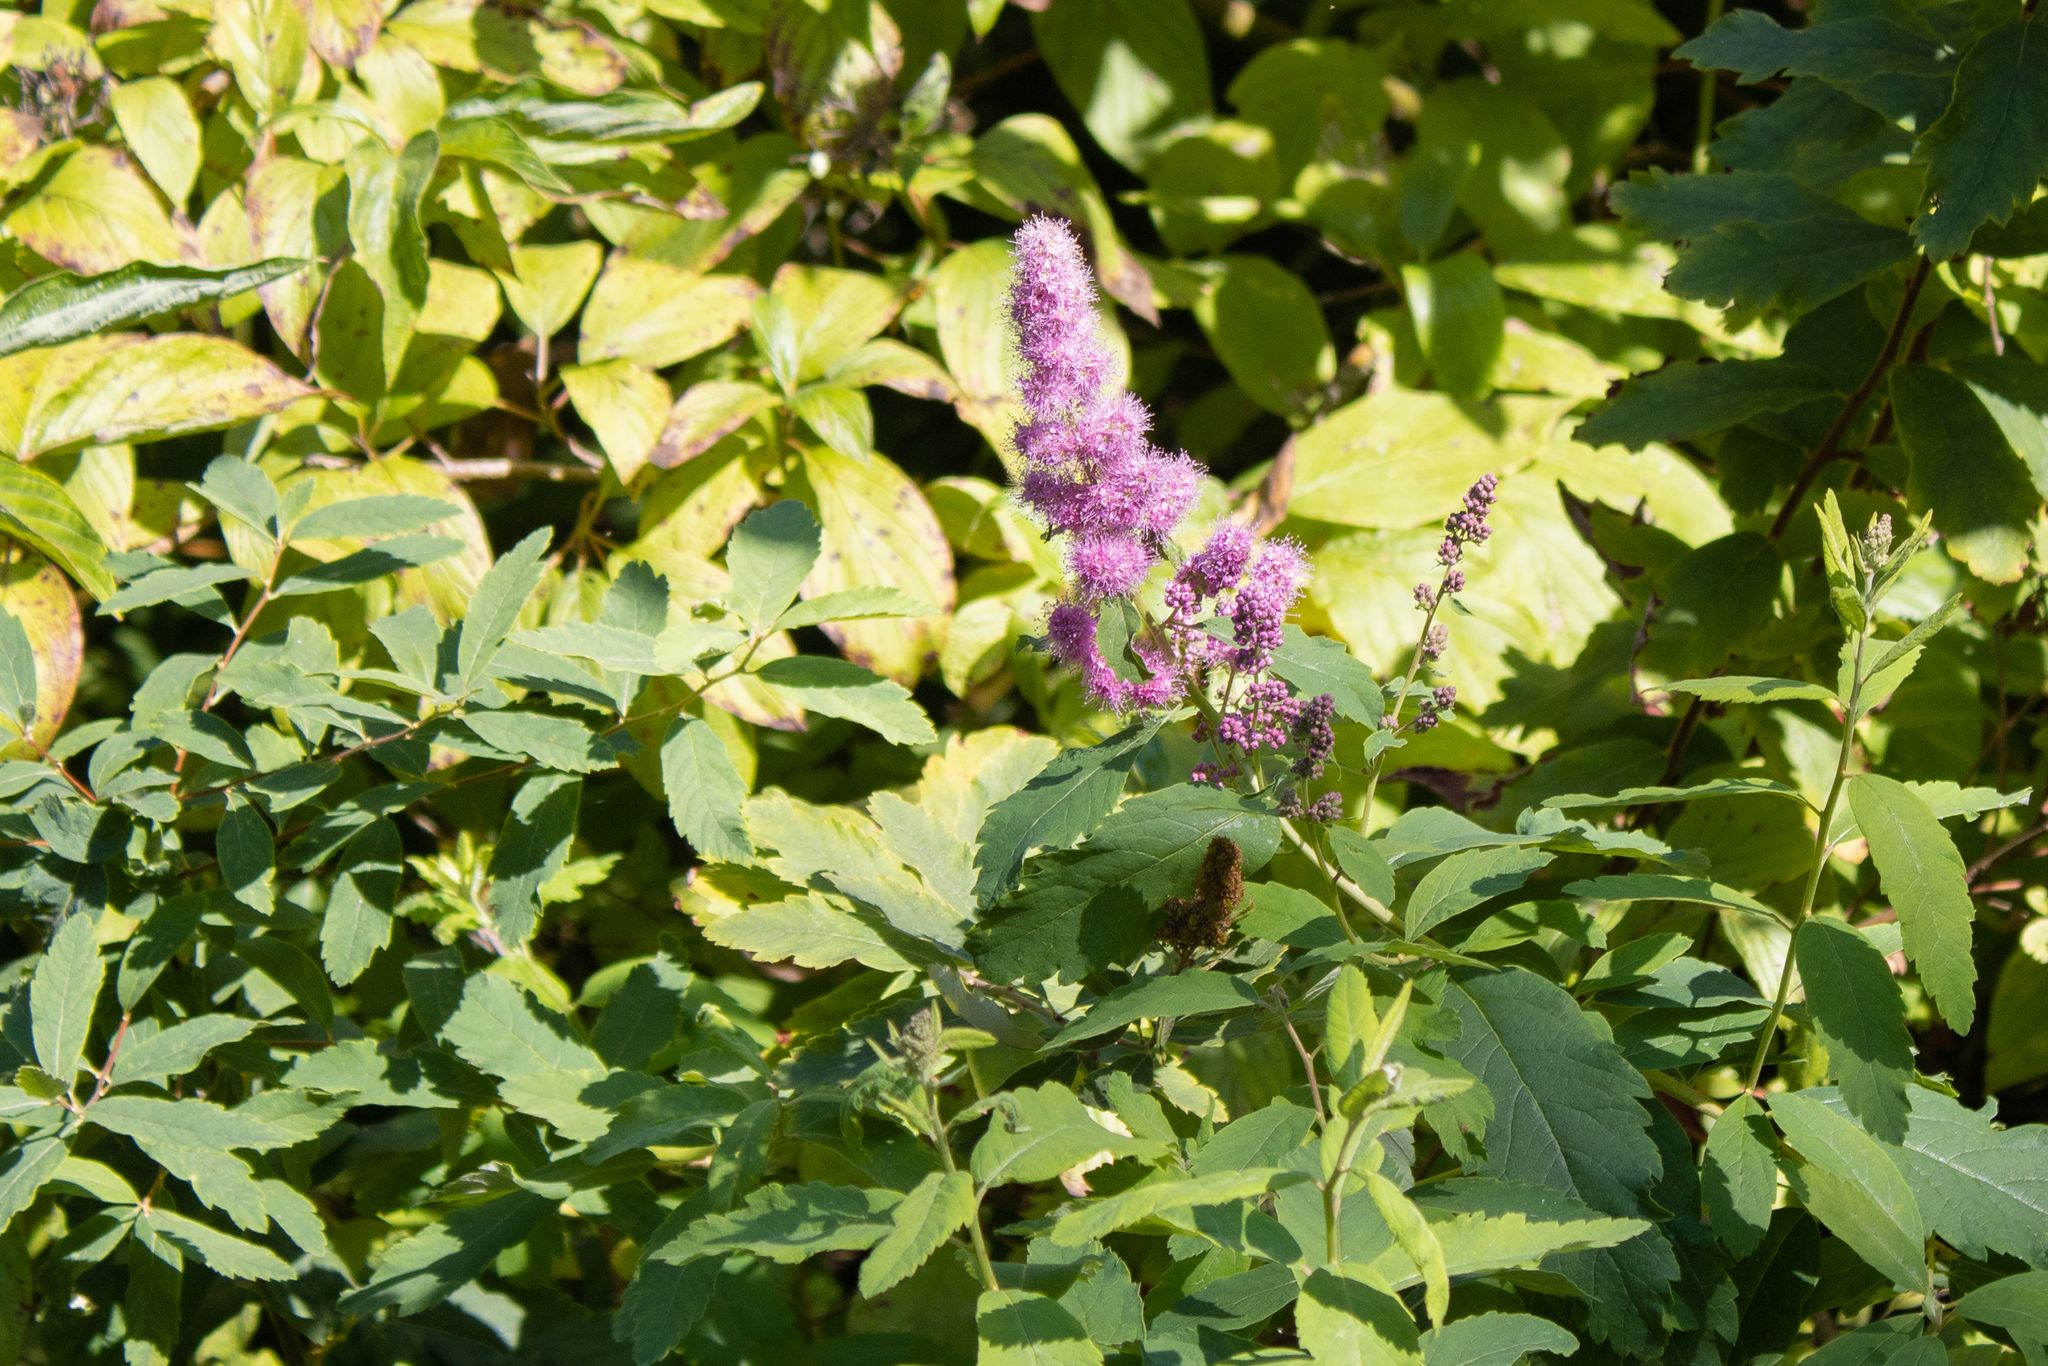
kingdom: Plantae
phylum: Tracheophyta
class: Magnoliopsida
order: Rosales
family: Rosaceae
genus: Spiraea
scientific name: Spiraea douglasii
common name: Steeplebush
